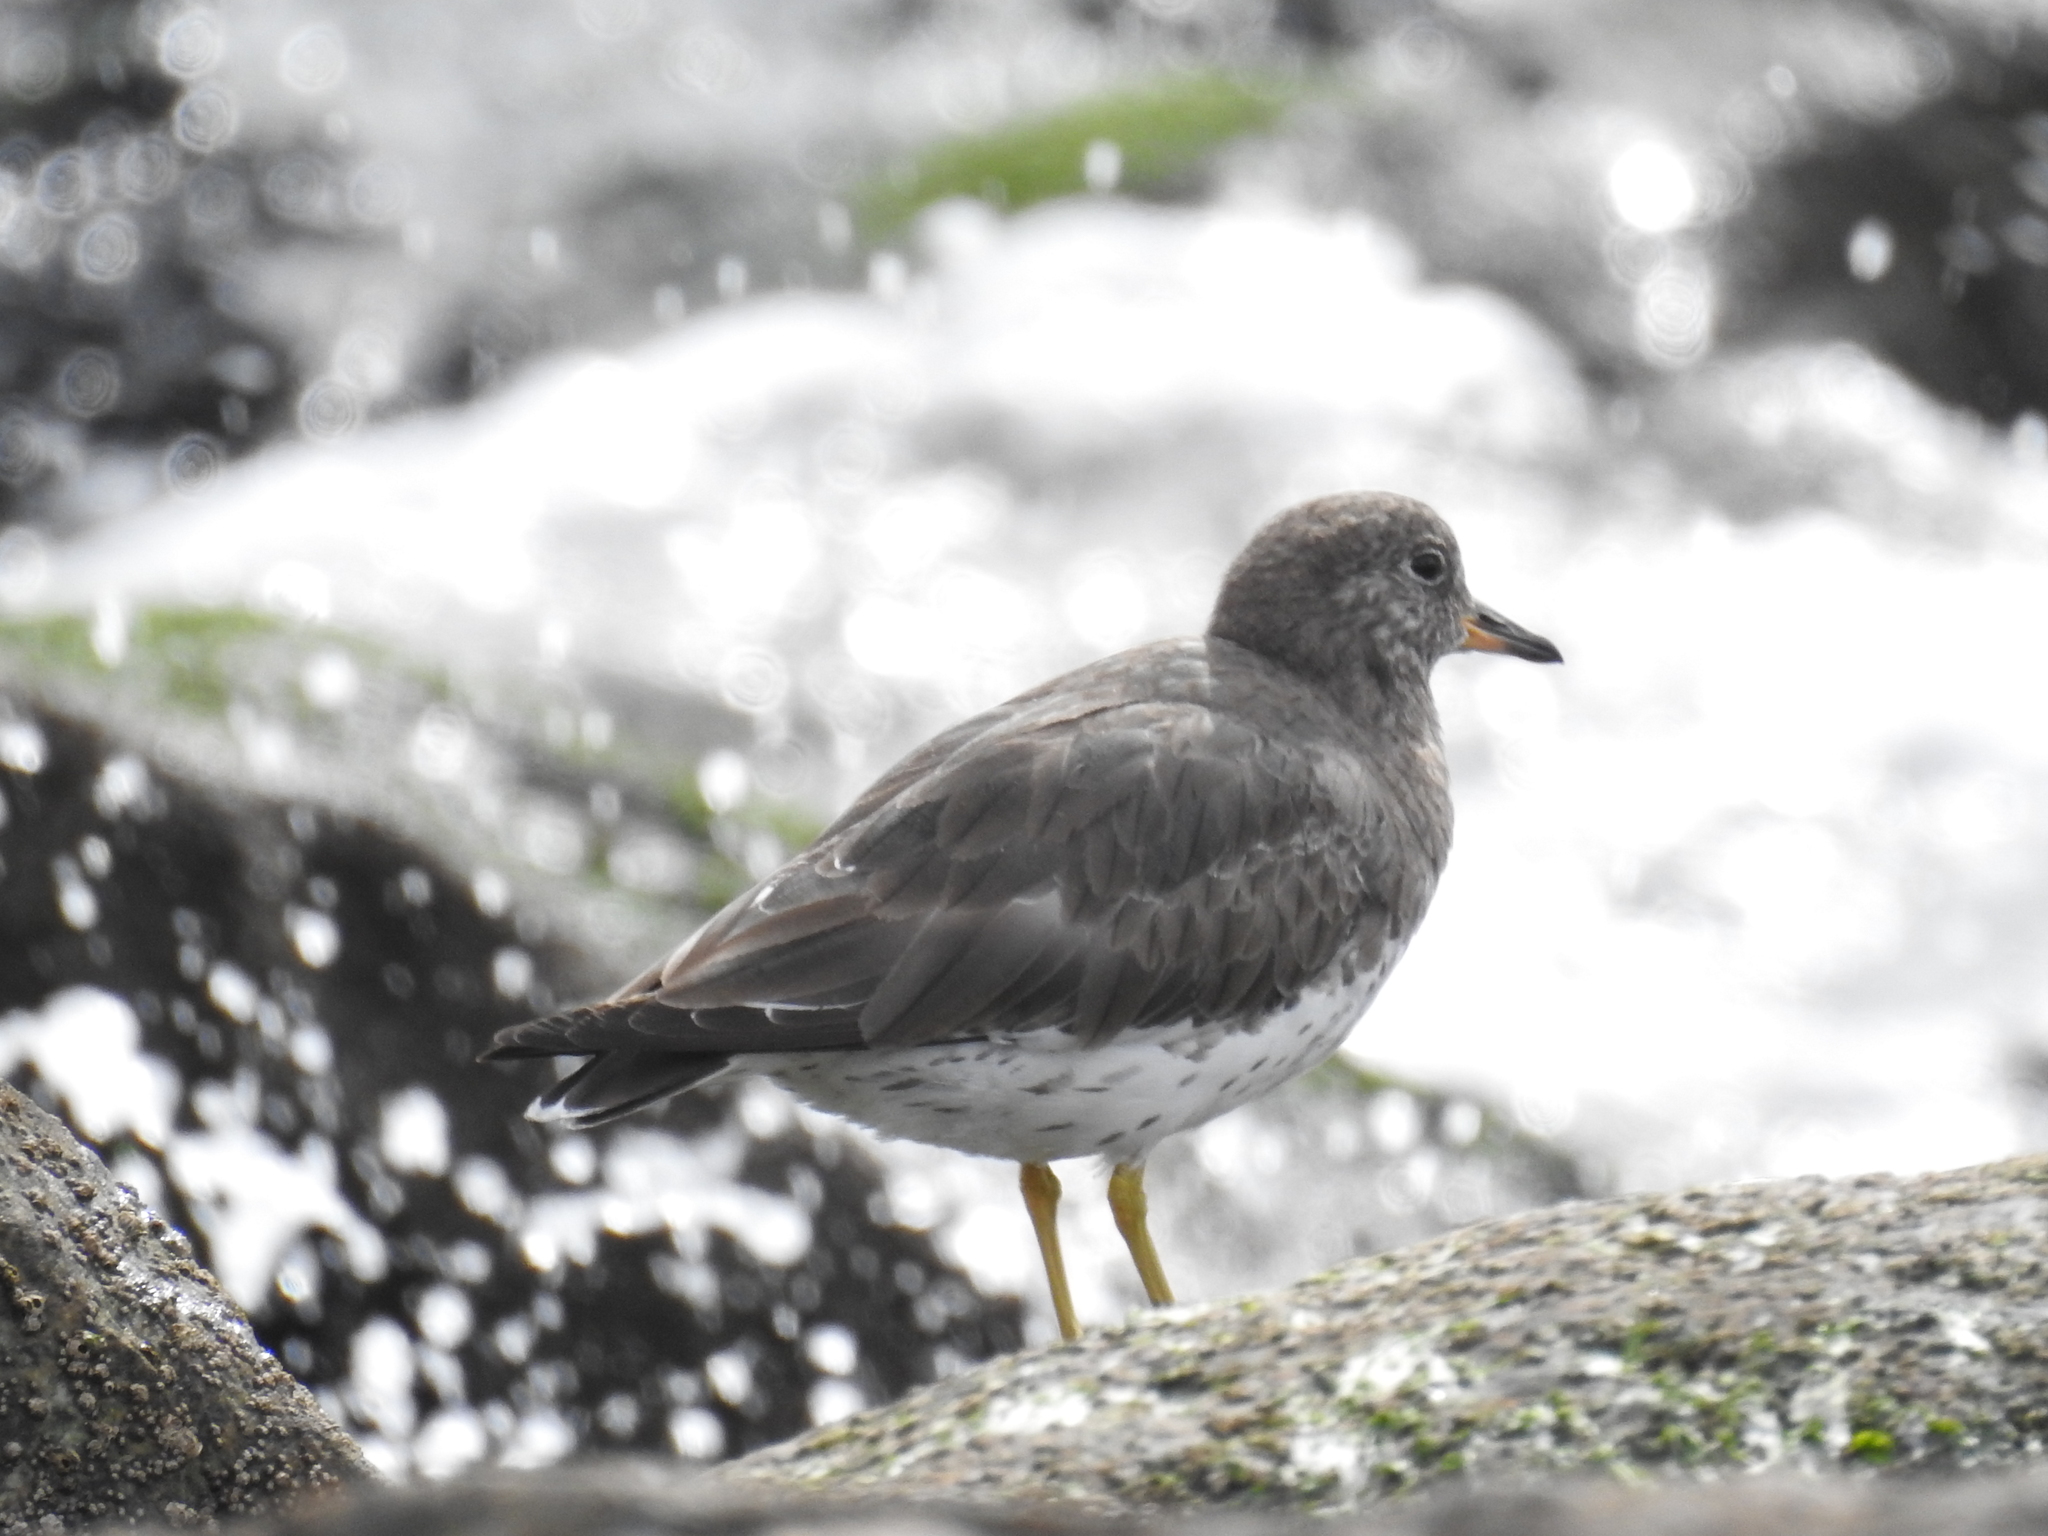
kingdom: Animalia
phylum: Chordata
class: Aves
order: Charadriiformes
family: Scolopacidae
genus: Calidris
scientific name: Calidris virgata
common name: Surfbird
